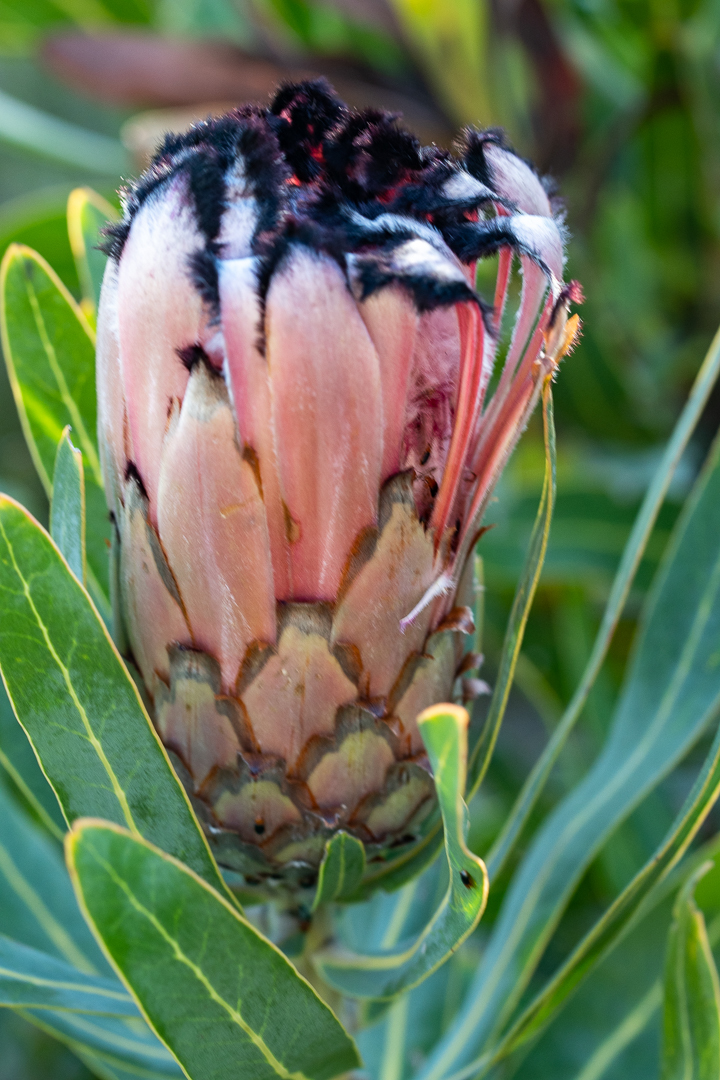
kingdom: Plantae
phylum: Tracheophyta
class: Magnoliopsida
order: Proteales
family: Proteaceae
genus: Protea
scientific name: Protea neriifolia
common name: Blue sugarbush
